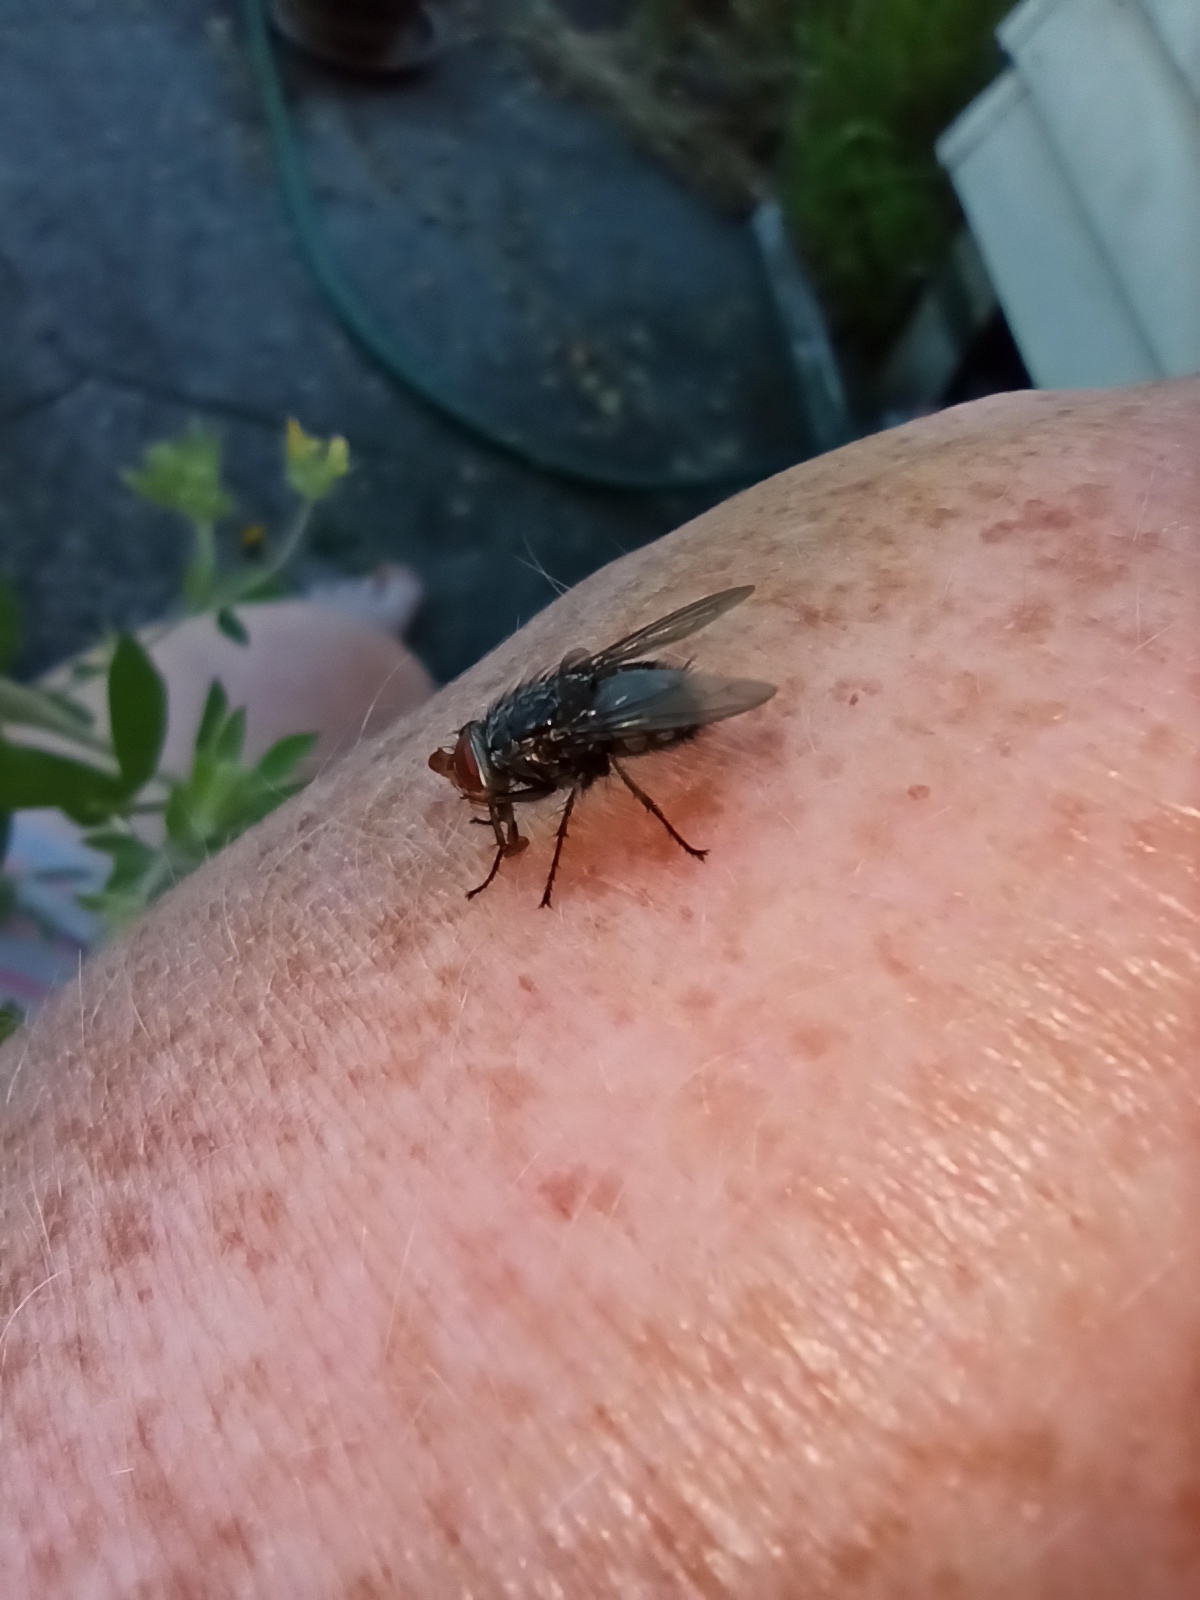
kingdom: Animalia
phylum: Arthropoda
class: Insecta
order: Diptera
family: Calliphoridae
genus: Calliphora
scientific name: Calliphora vicina
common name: Common blow flie
